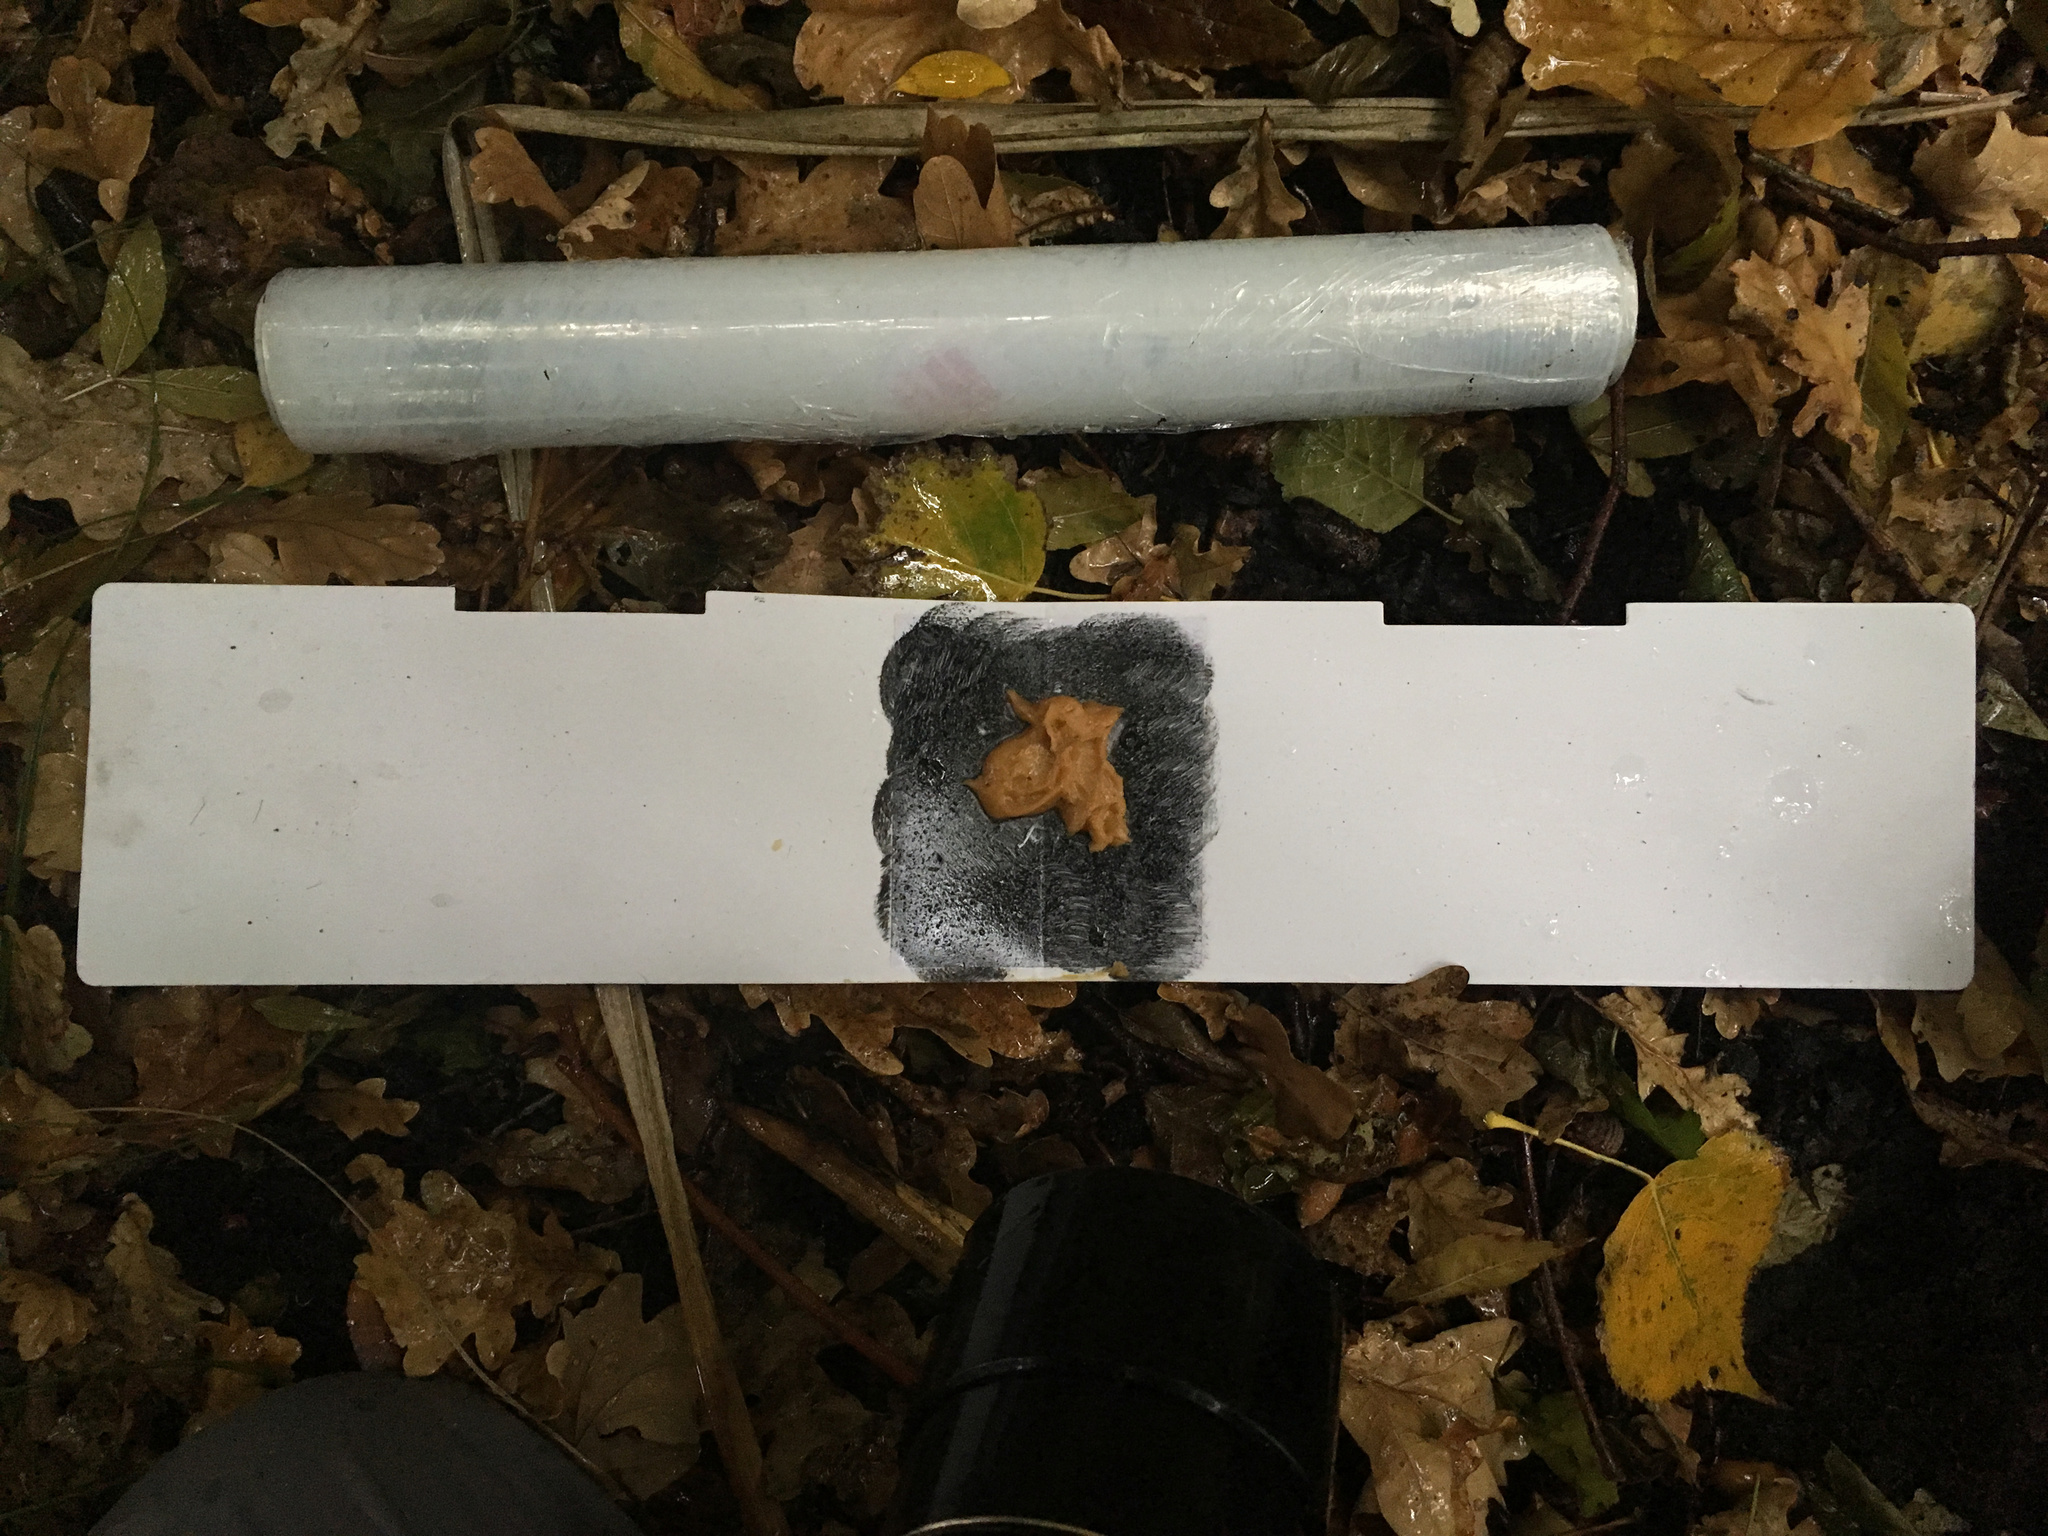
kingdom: Animalia
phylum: Chordata
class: Mammalia
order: Diprotodontia
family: Phalangeridae
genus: Trichosurus
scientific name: Trichosurus vulpecula
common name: Common brushtail
